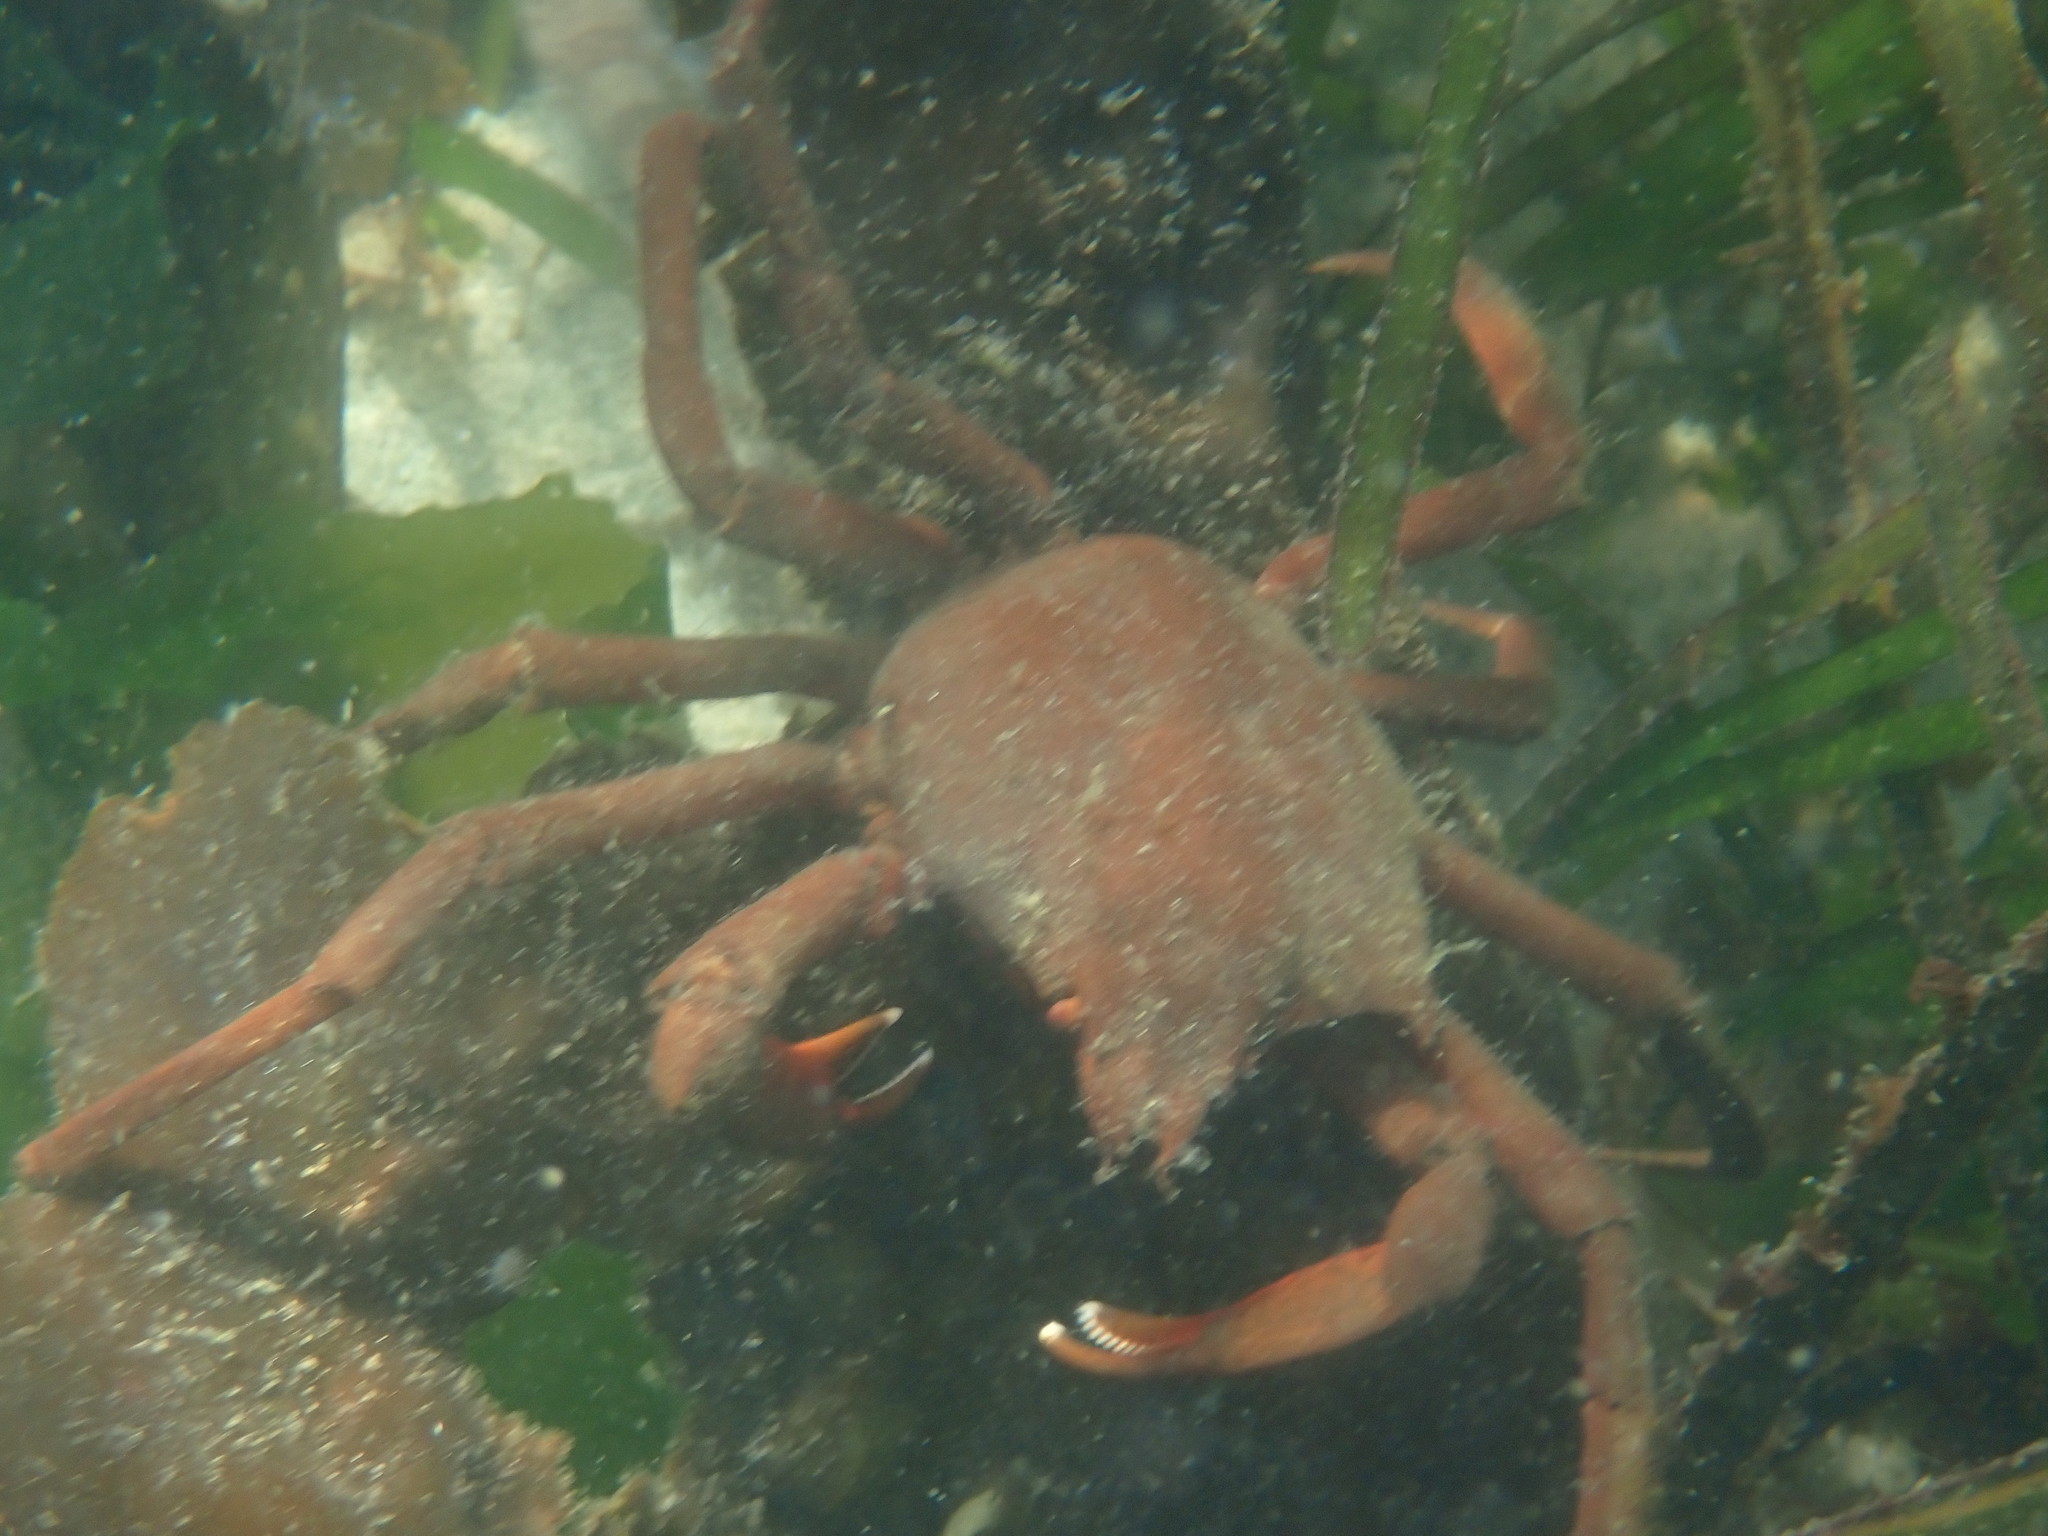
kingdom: Animalia
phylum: Arthropoda
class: Malacostraca
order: Decapoda
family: Epialtidae
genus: Pugettia
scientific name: Pugettia producta
